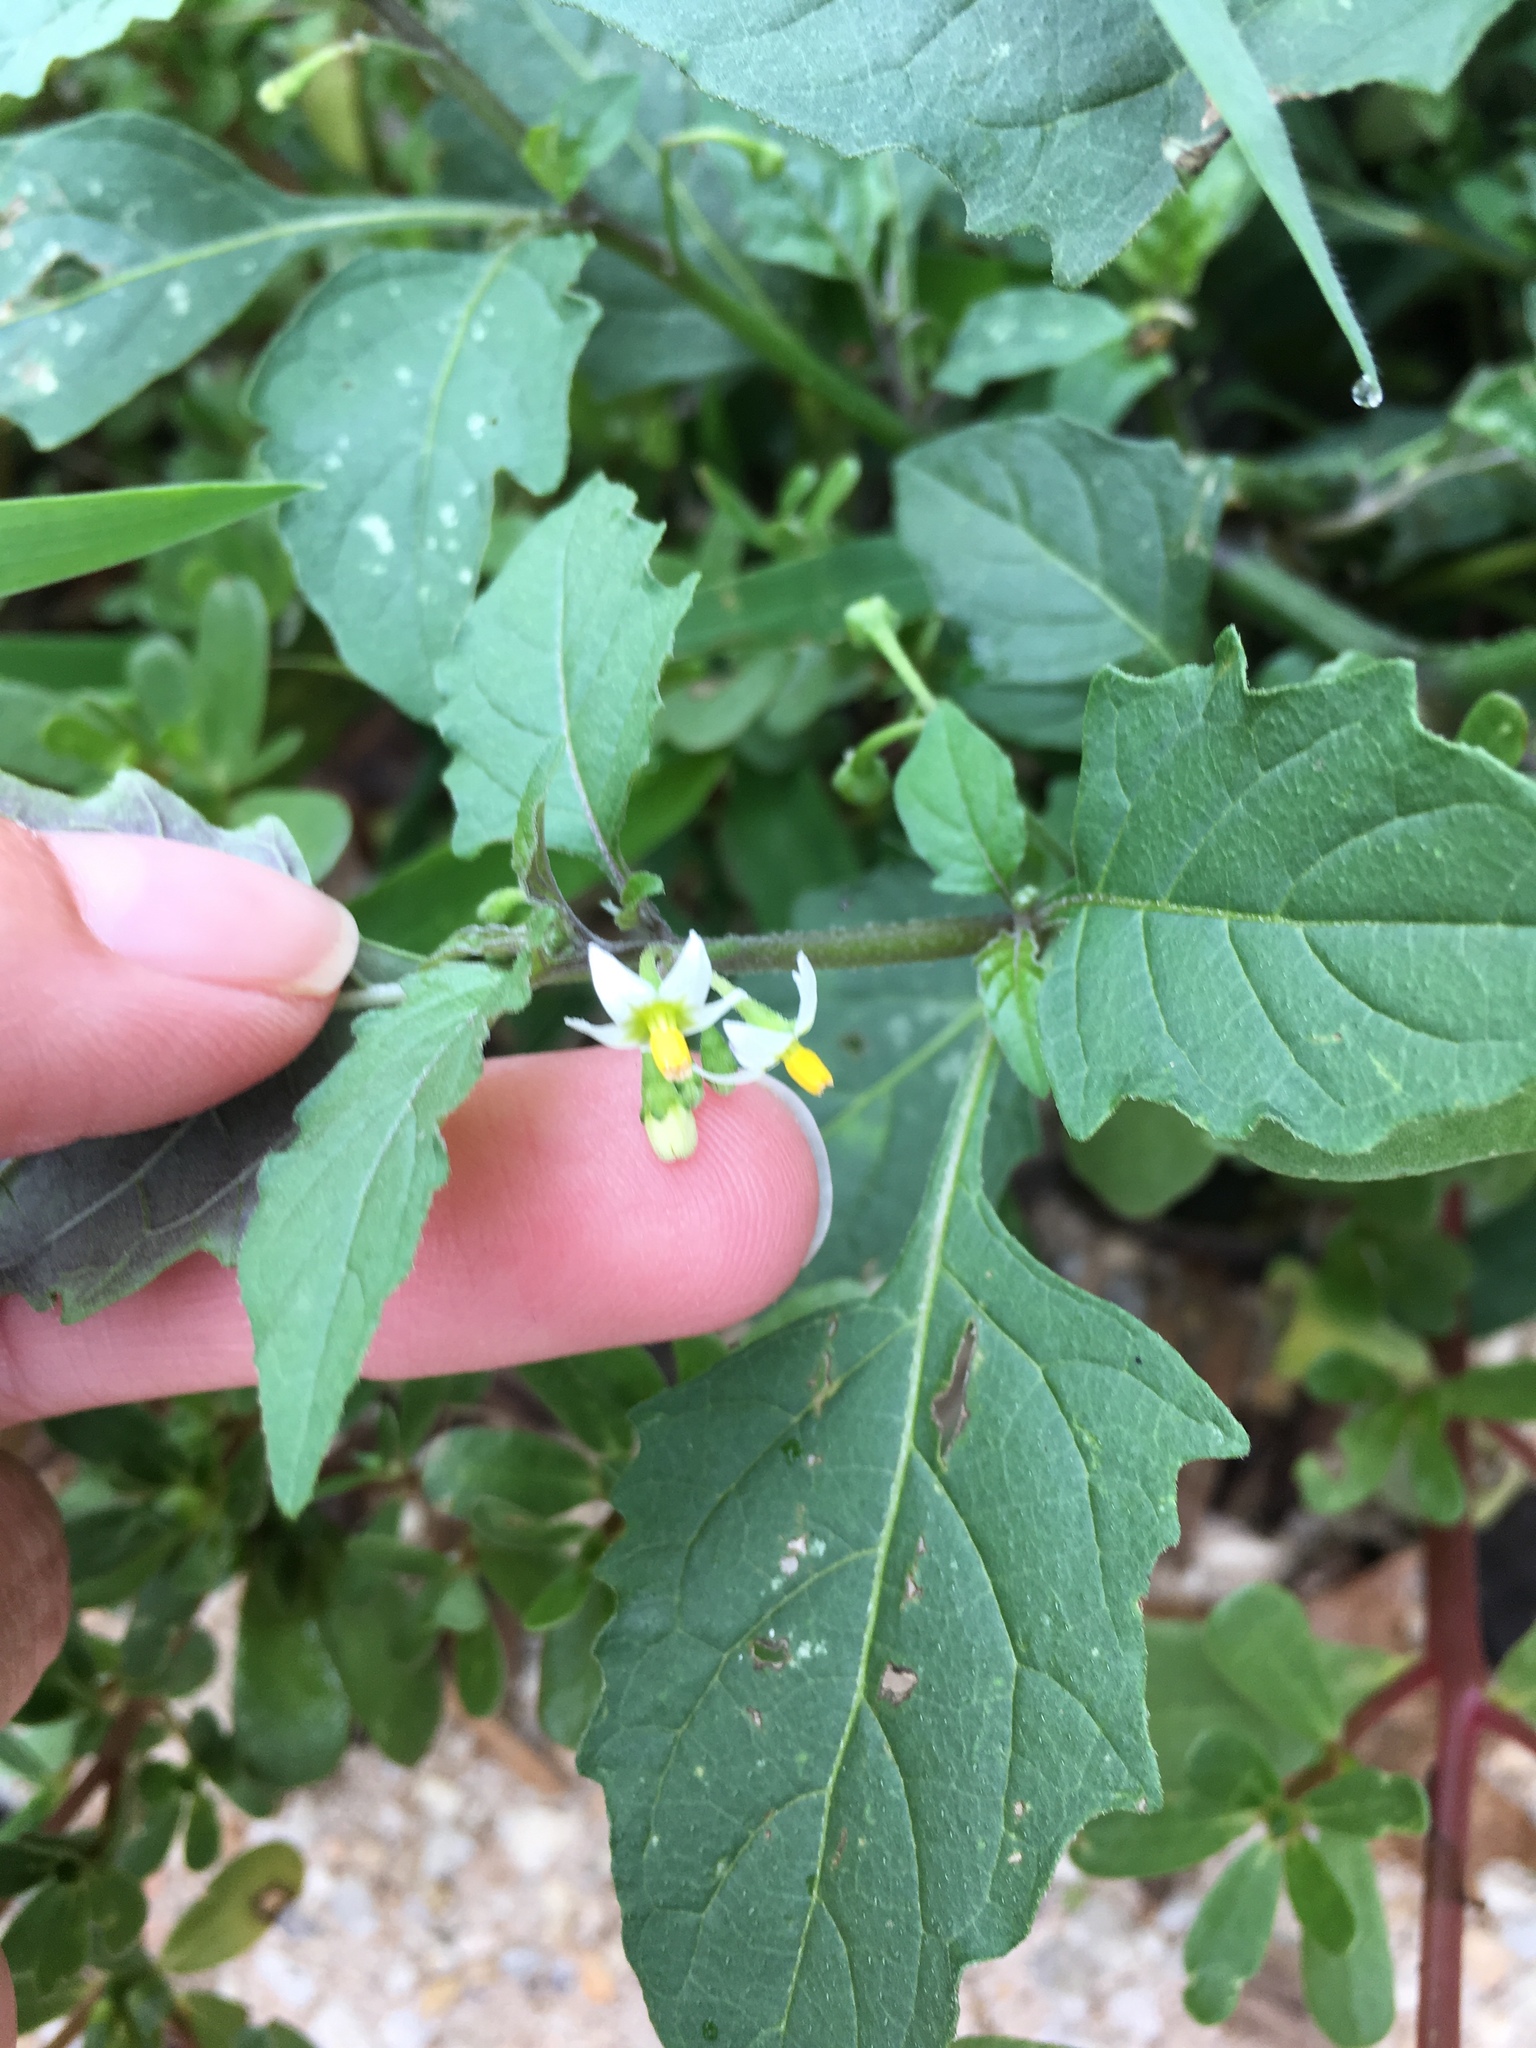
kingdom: Plantae
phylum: Tracheophyta
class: Magnoliopsida
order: Solanales
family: Solanaceae
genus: Solanum
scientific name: Solanum emulans
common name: Eastern black nightshade
